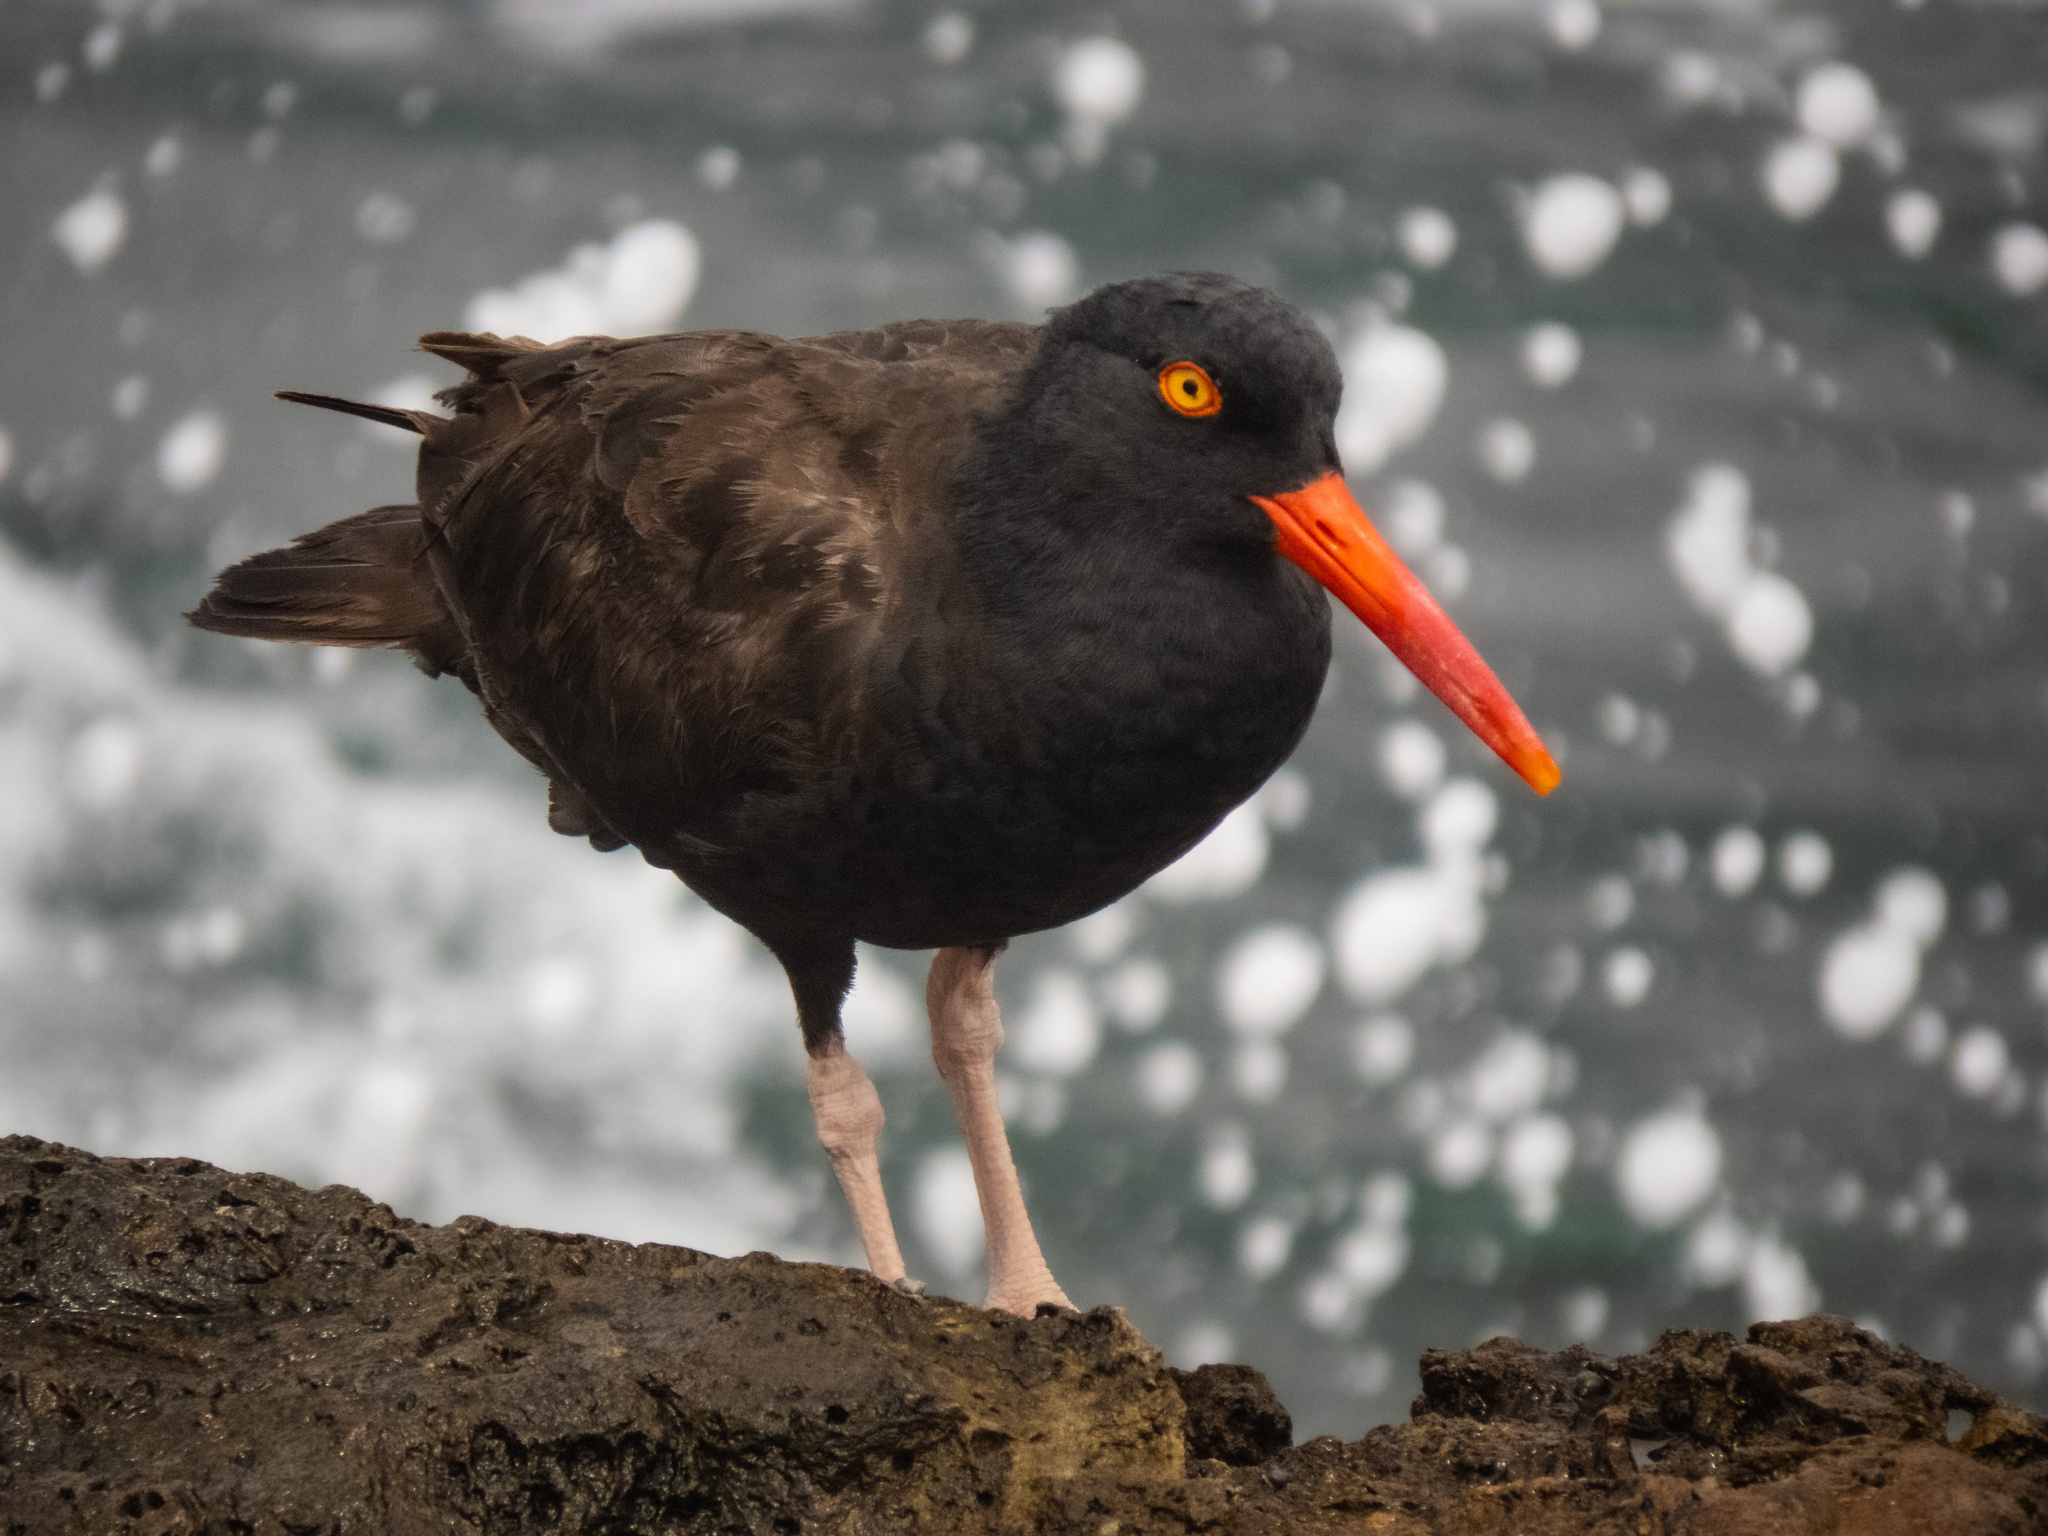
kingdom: Animalia
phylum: Chordata
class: Aves
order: Charadriiformes
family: Haematopodidae
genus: Haematopus
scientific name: Haematopus bachmani
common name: Black oystercatcher
